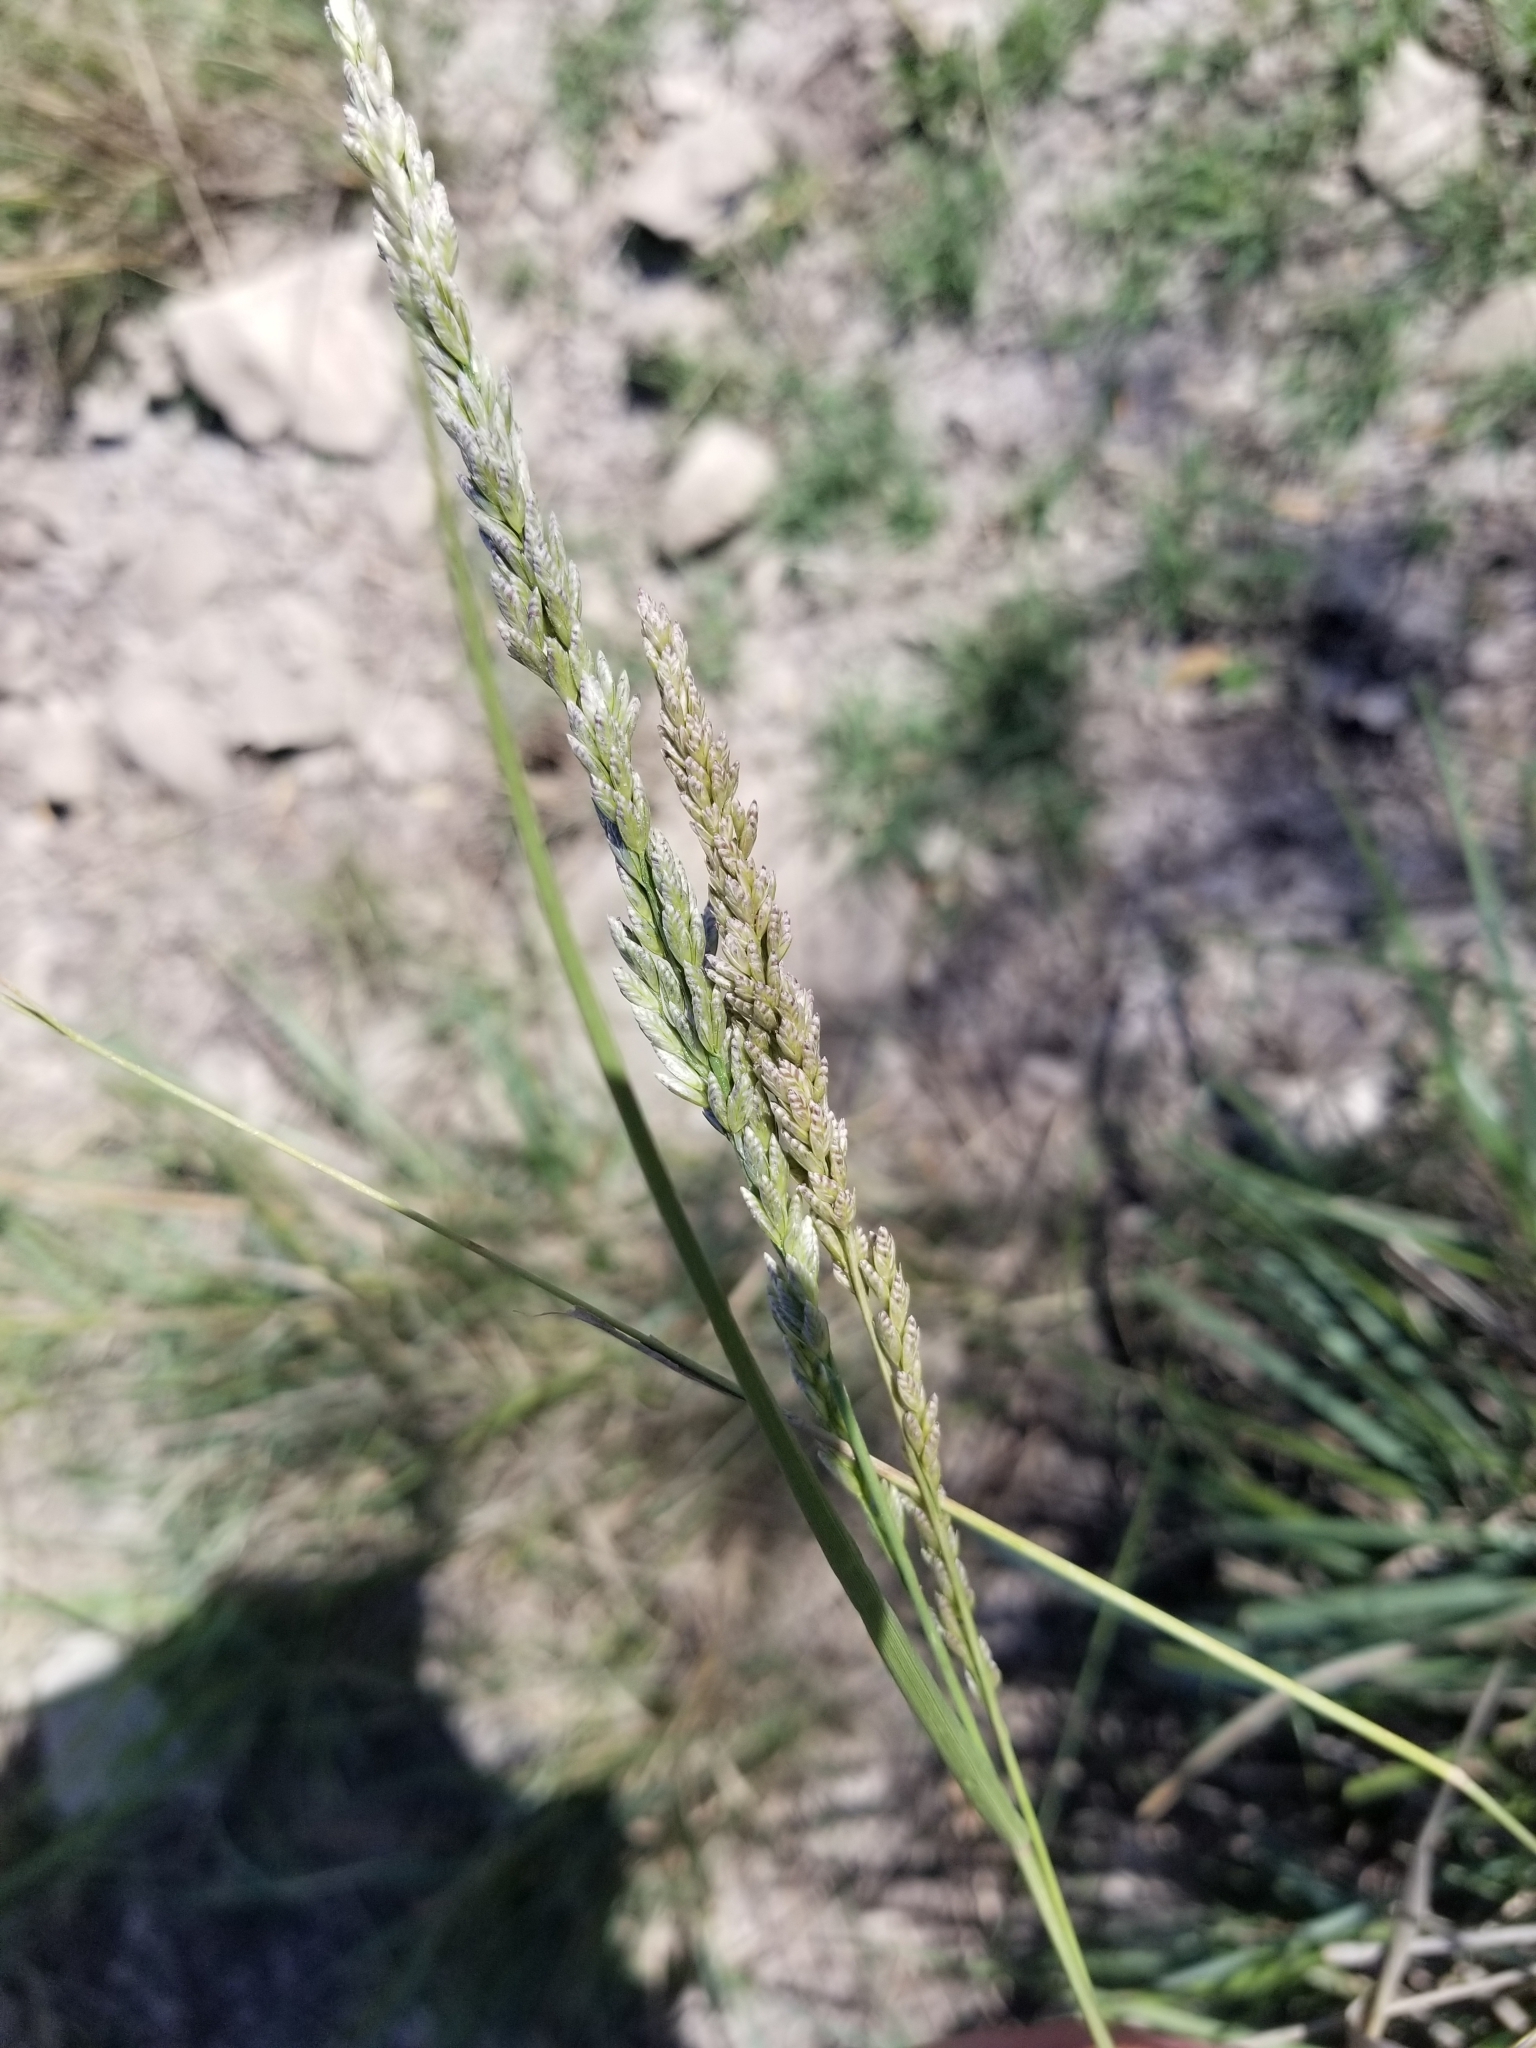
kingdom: Plantae
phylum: Tracheophyta
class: Liliopsida
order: Poales
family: Poaceae
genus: Tridens
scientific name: Tridens albescens
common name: White tridens
